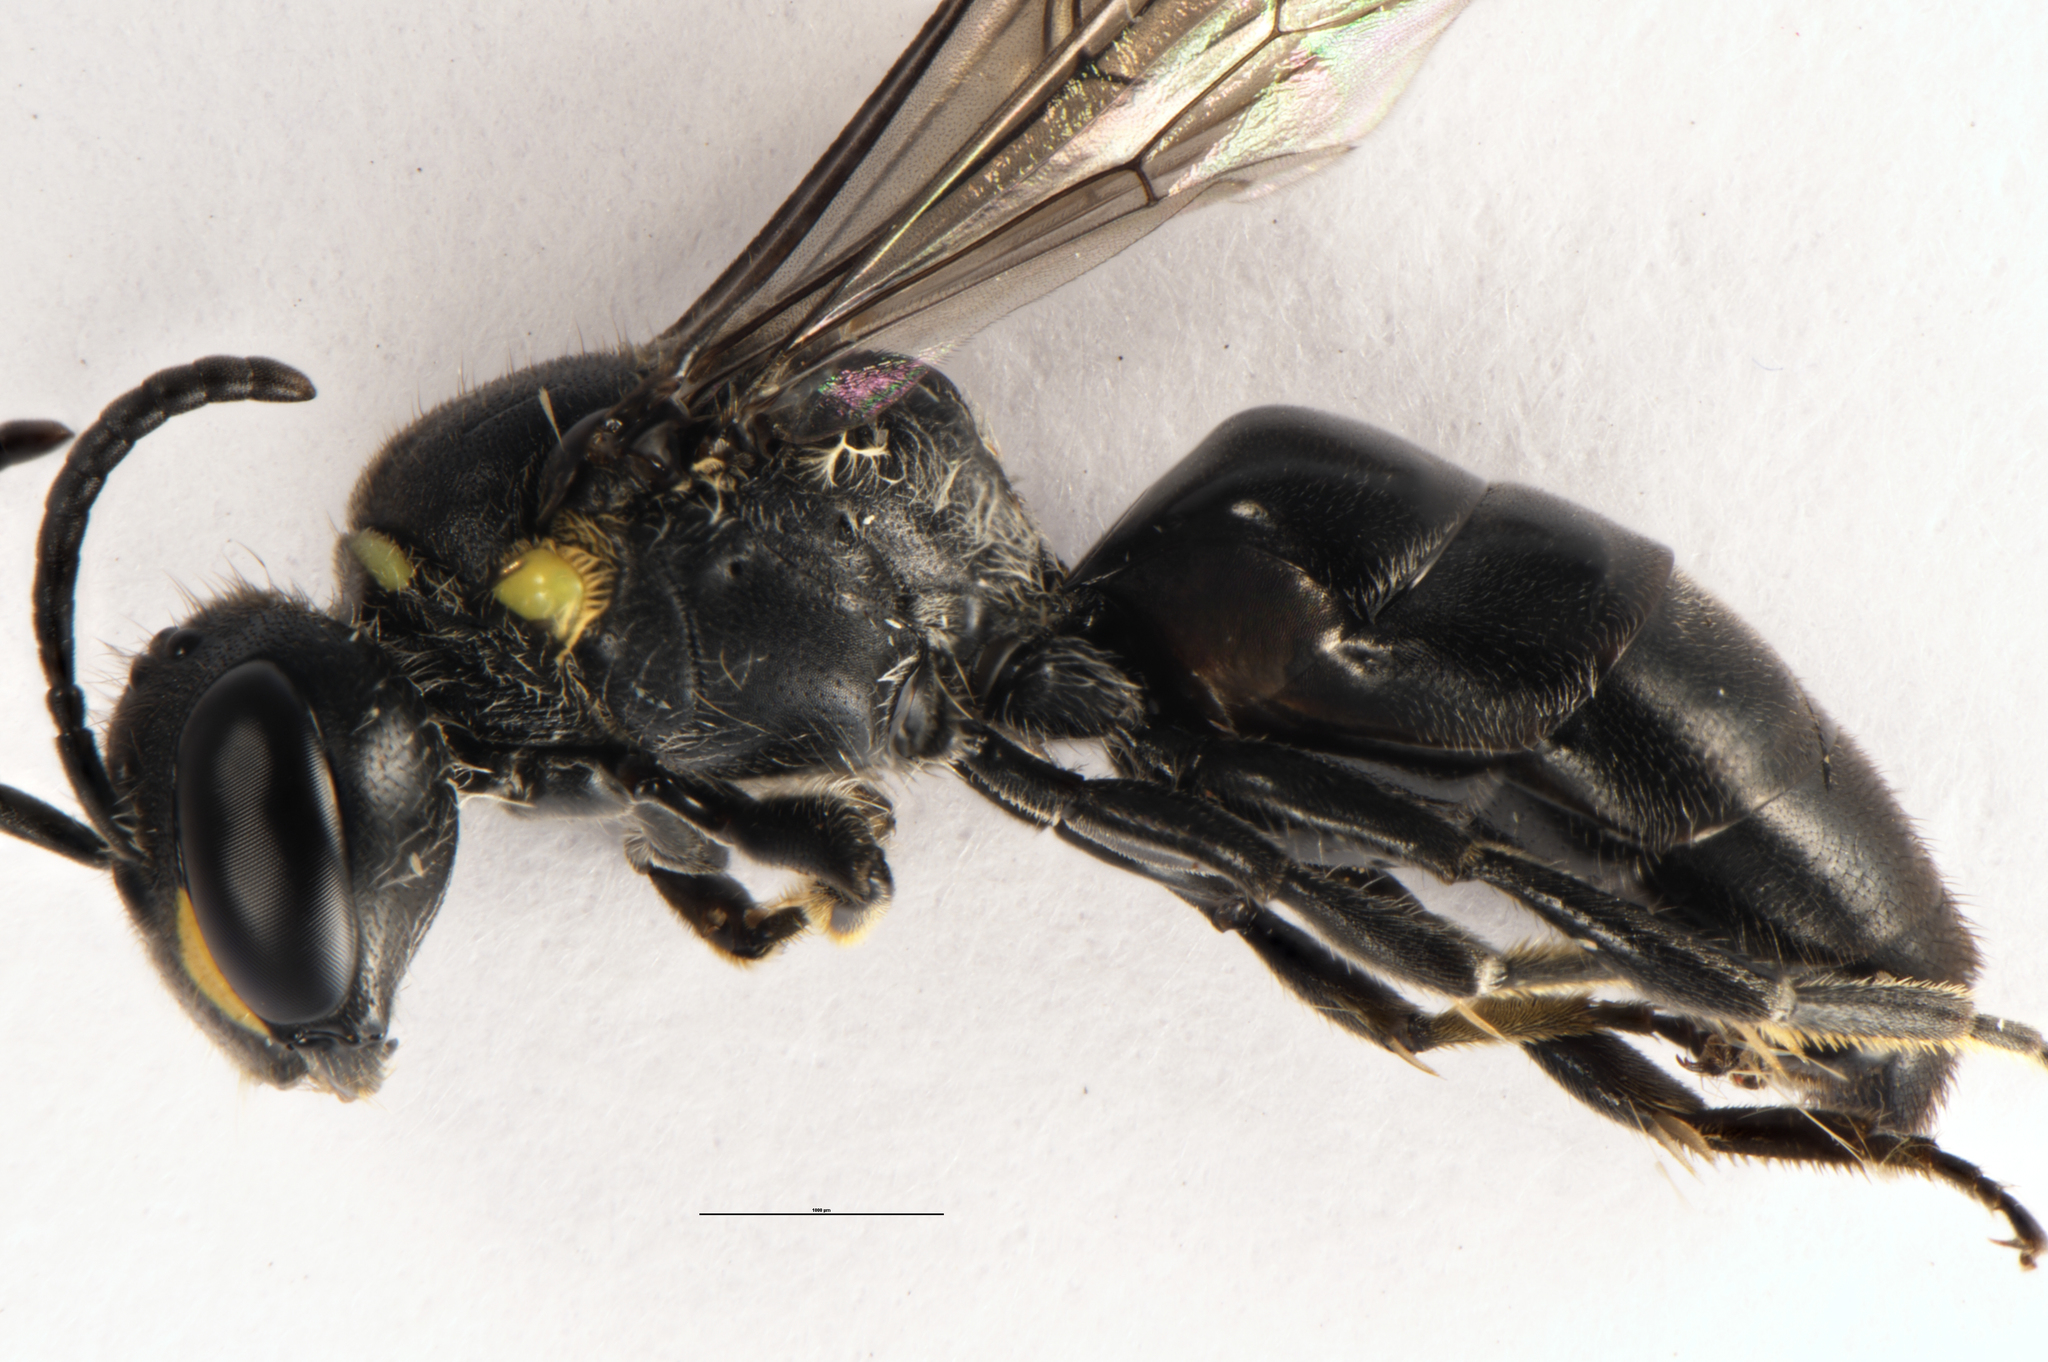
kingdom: Animalia
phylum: Arthropoda
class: Insecta
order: Hymenoptera
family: Halictidae
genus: Lasioglossum
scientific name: Lasioglossum sordidum
